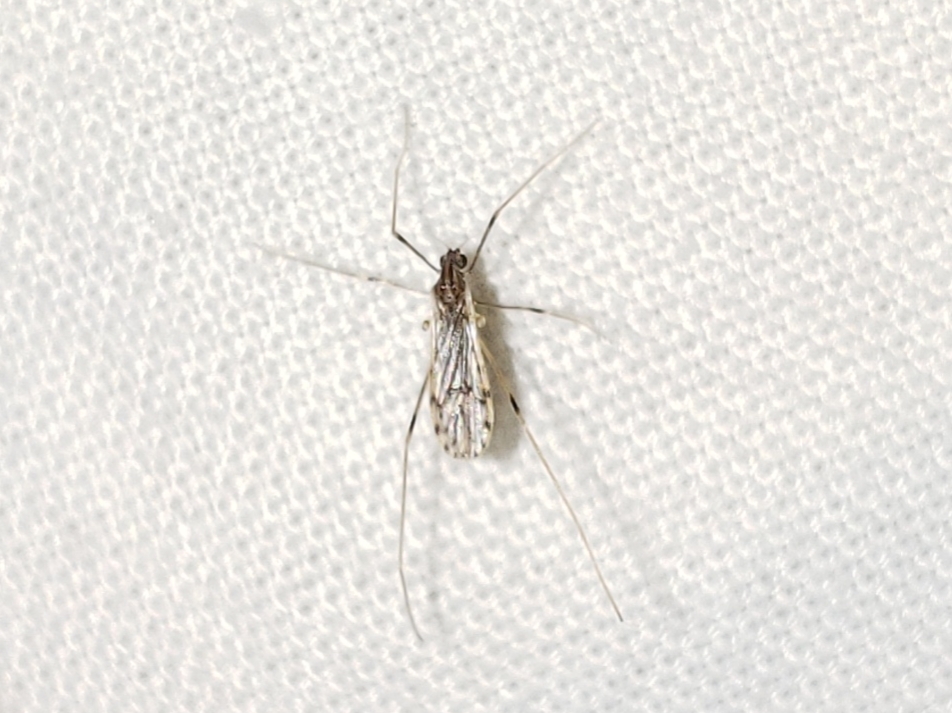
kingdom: Animalia
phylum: Arthropoda
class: Insecta
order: Diptera
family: Limoniidae
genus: Erioptera
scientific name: Erioptera parva
